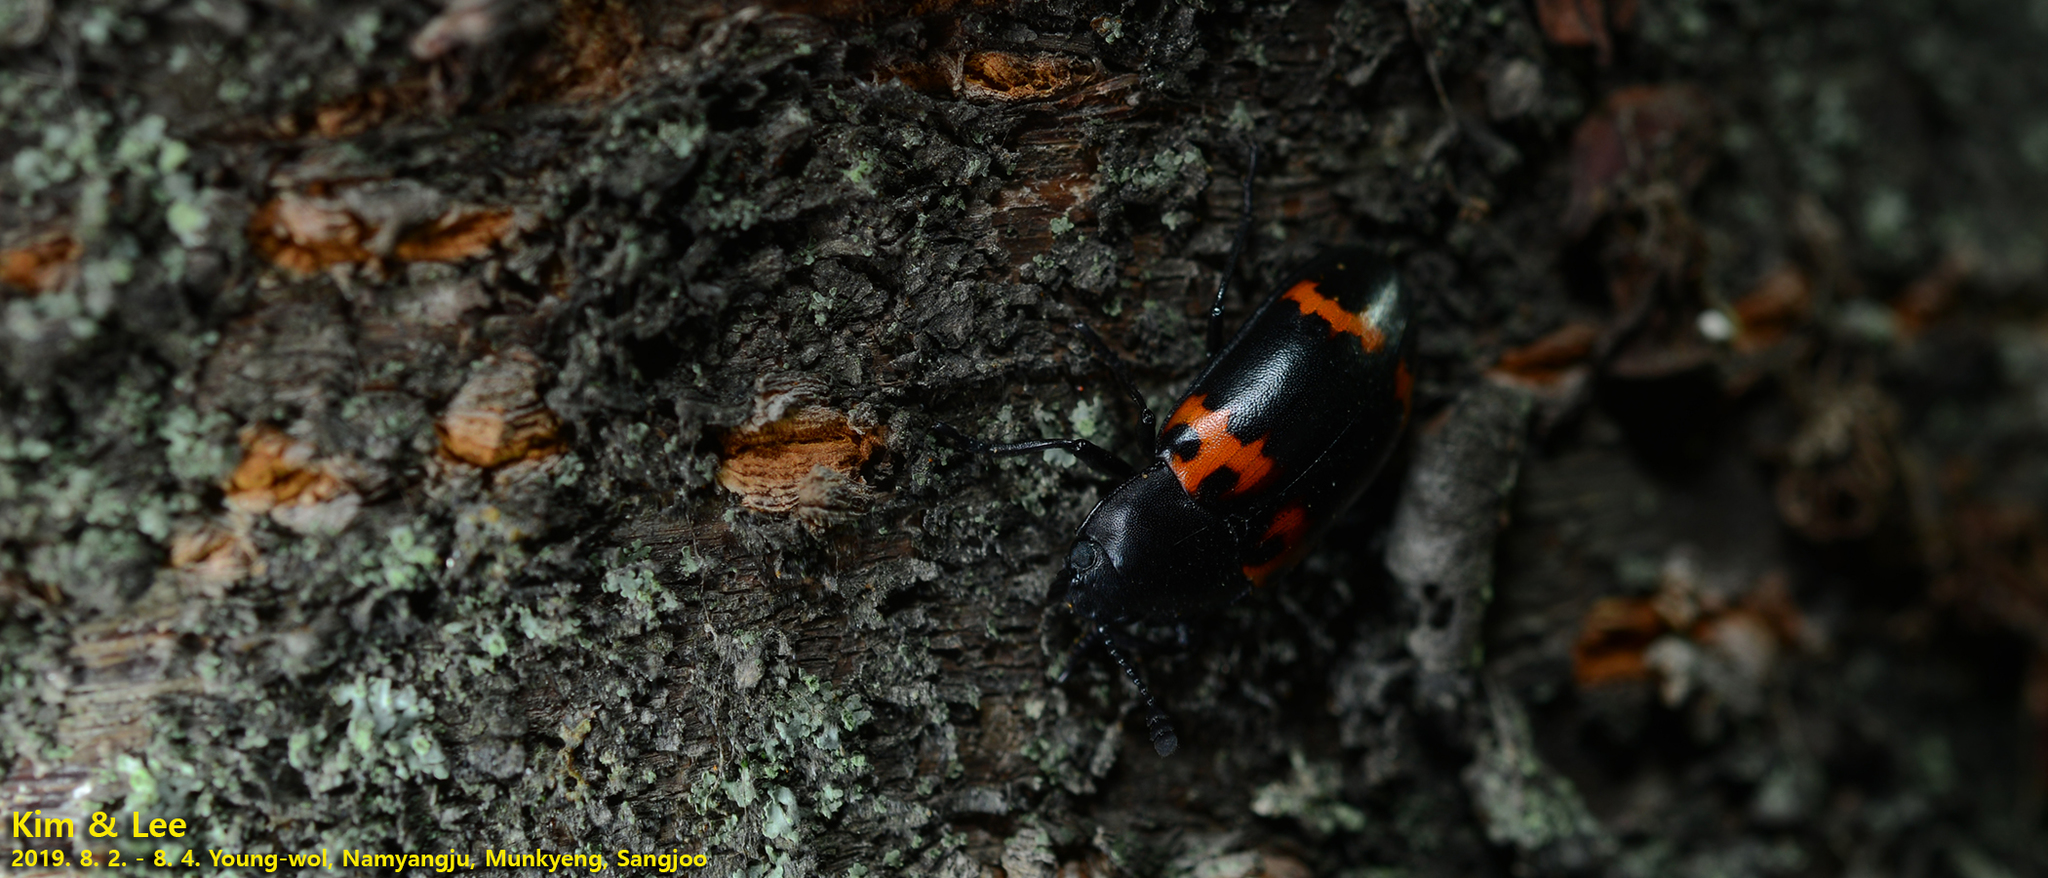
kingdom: Animalia
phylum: Arthropoda
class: Insecta
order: Coleoptera
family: Erotylidae
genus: Episcapha
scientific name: Episcapha morawitzi
